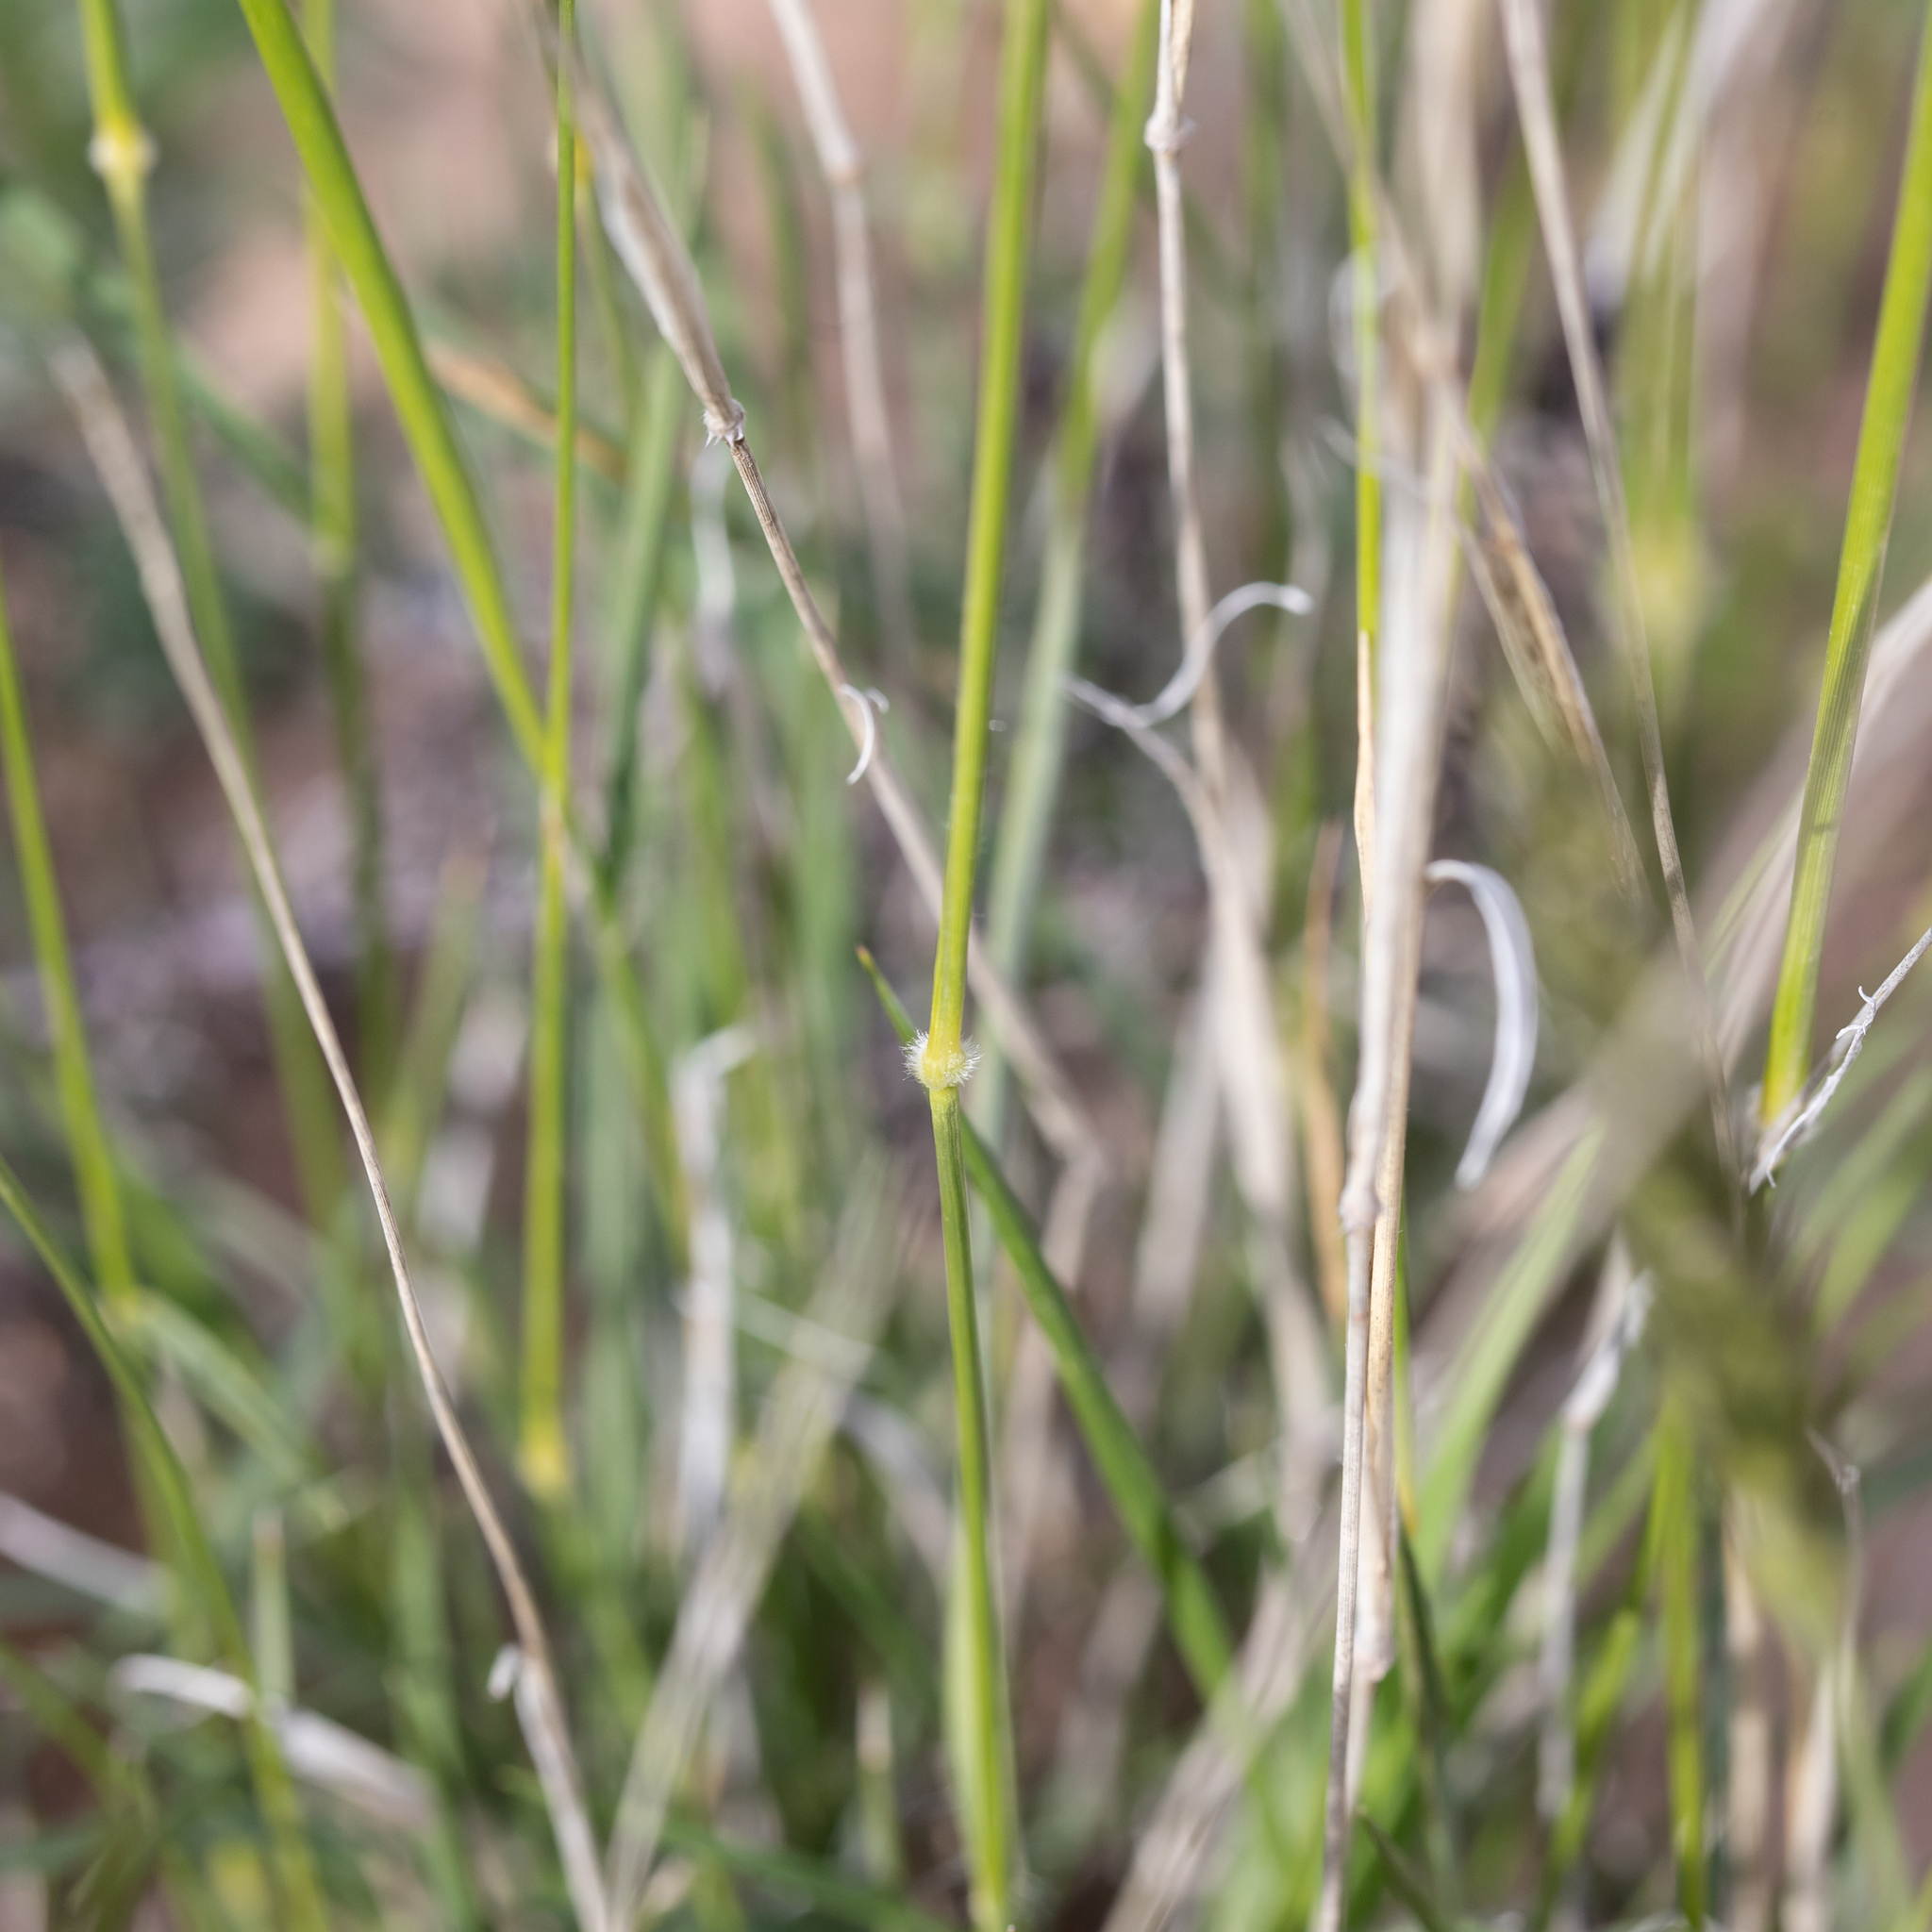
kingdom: Plantae
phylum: Tracheophyta
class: Liliopsida
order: Poales
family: Poaceae
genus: Neurachne
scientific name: Neurachne munroi
